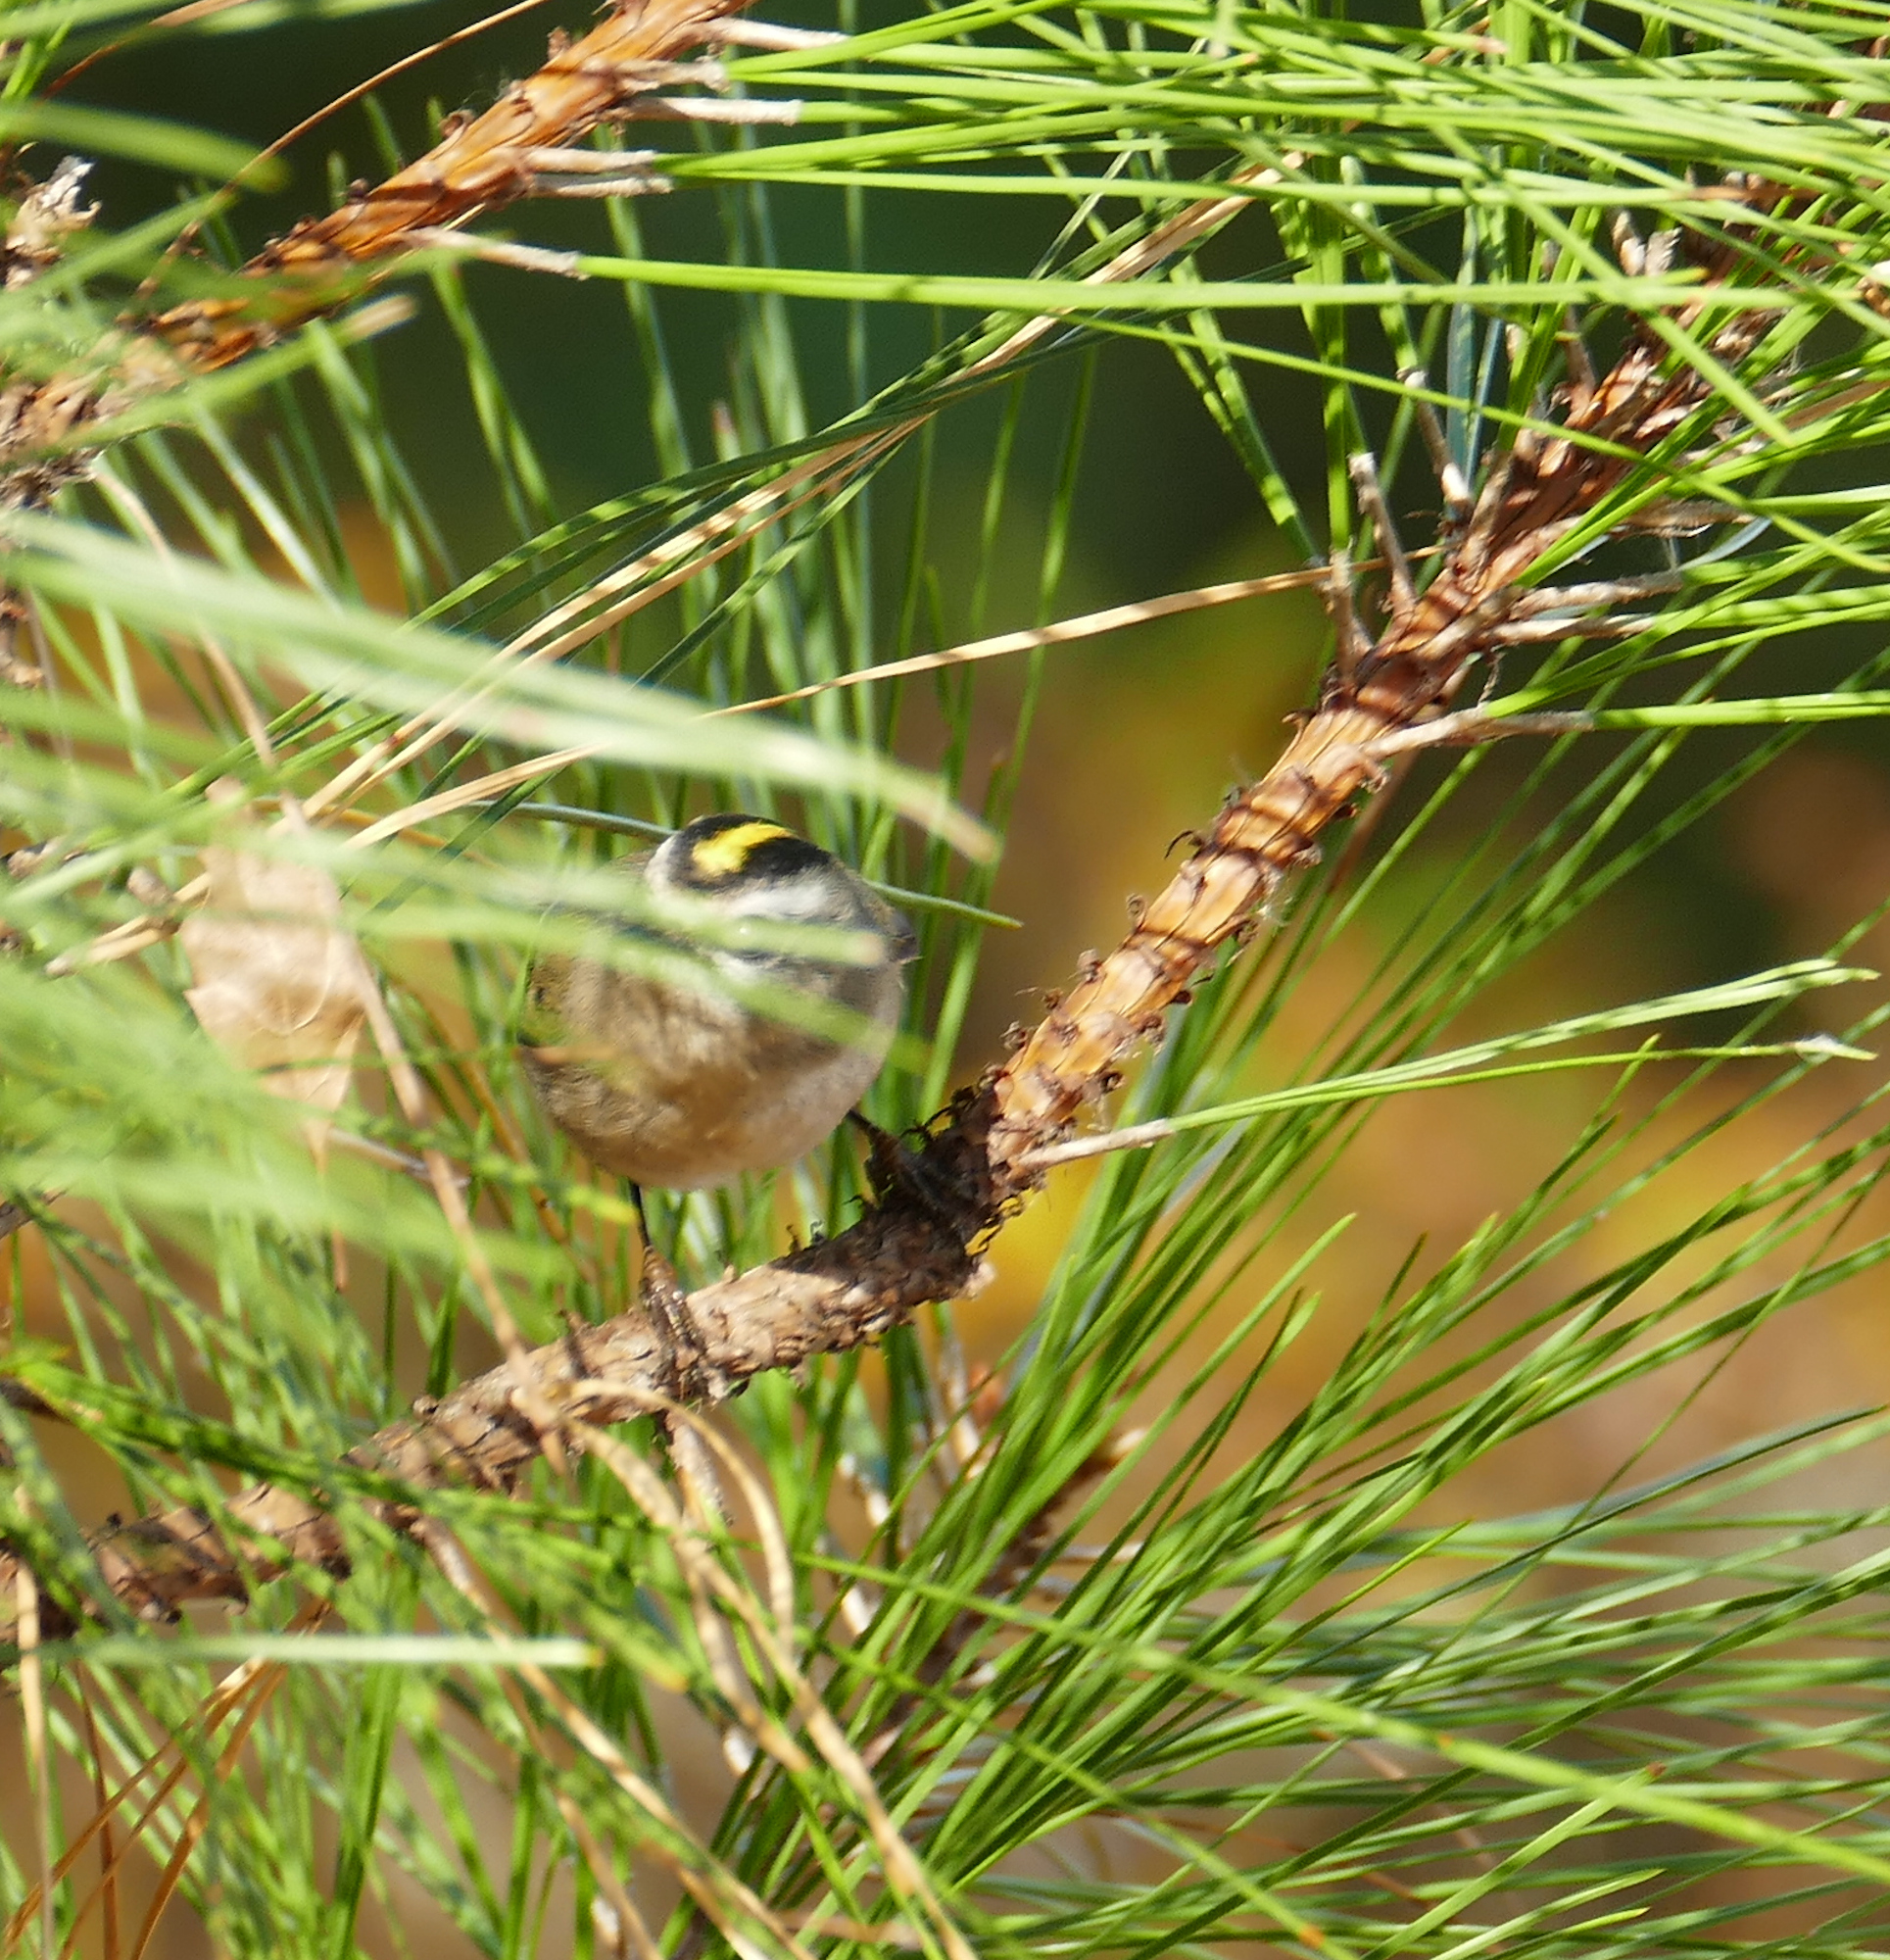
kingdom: Animalia
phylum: Chordata
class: Aves
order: Passeriformes
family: Regulidae
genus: Regulus
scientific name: Regulus satrapa
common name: Golden-crowned kinglet
